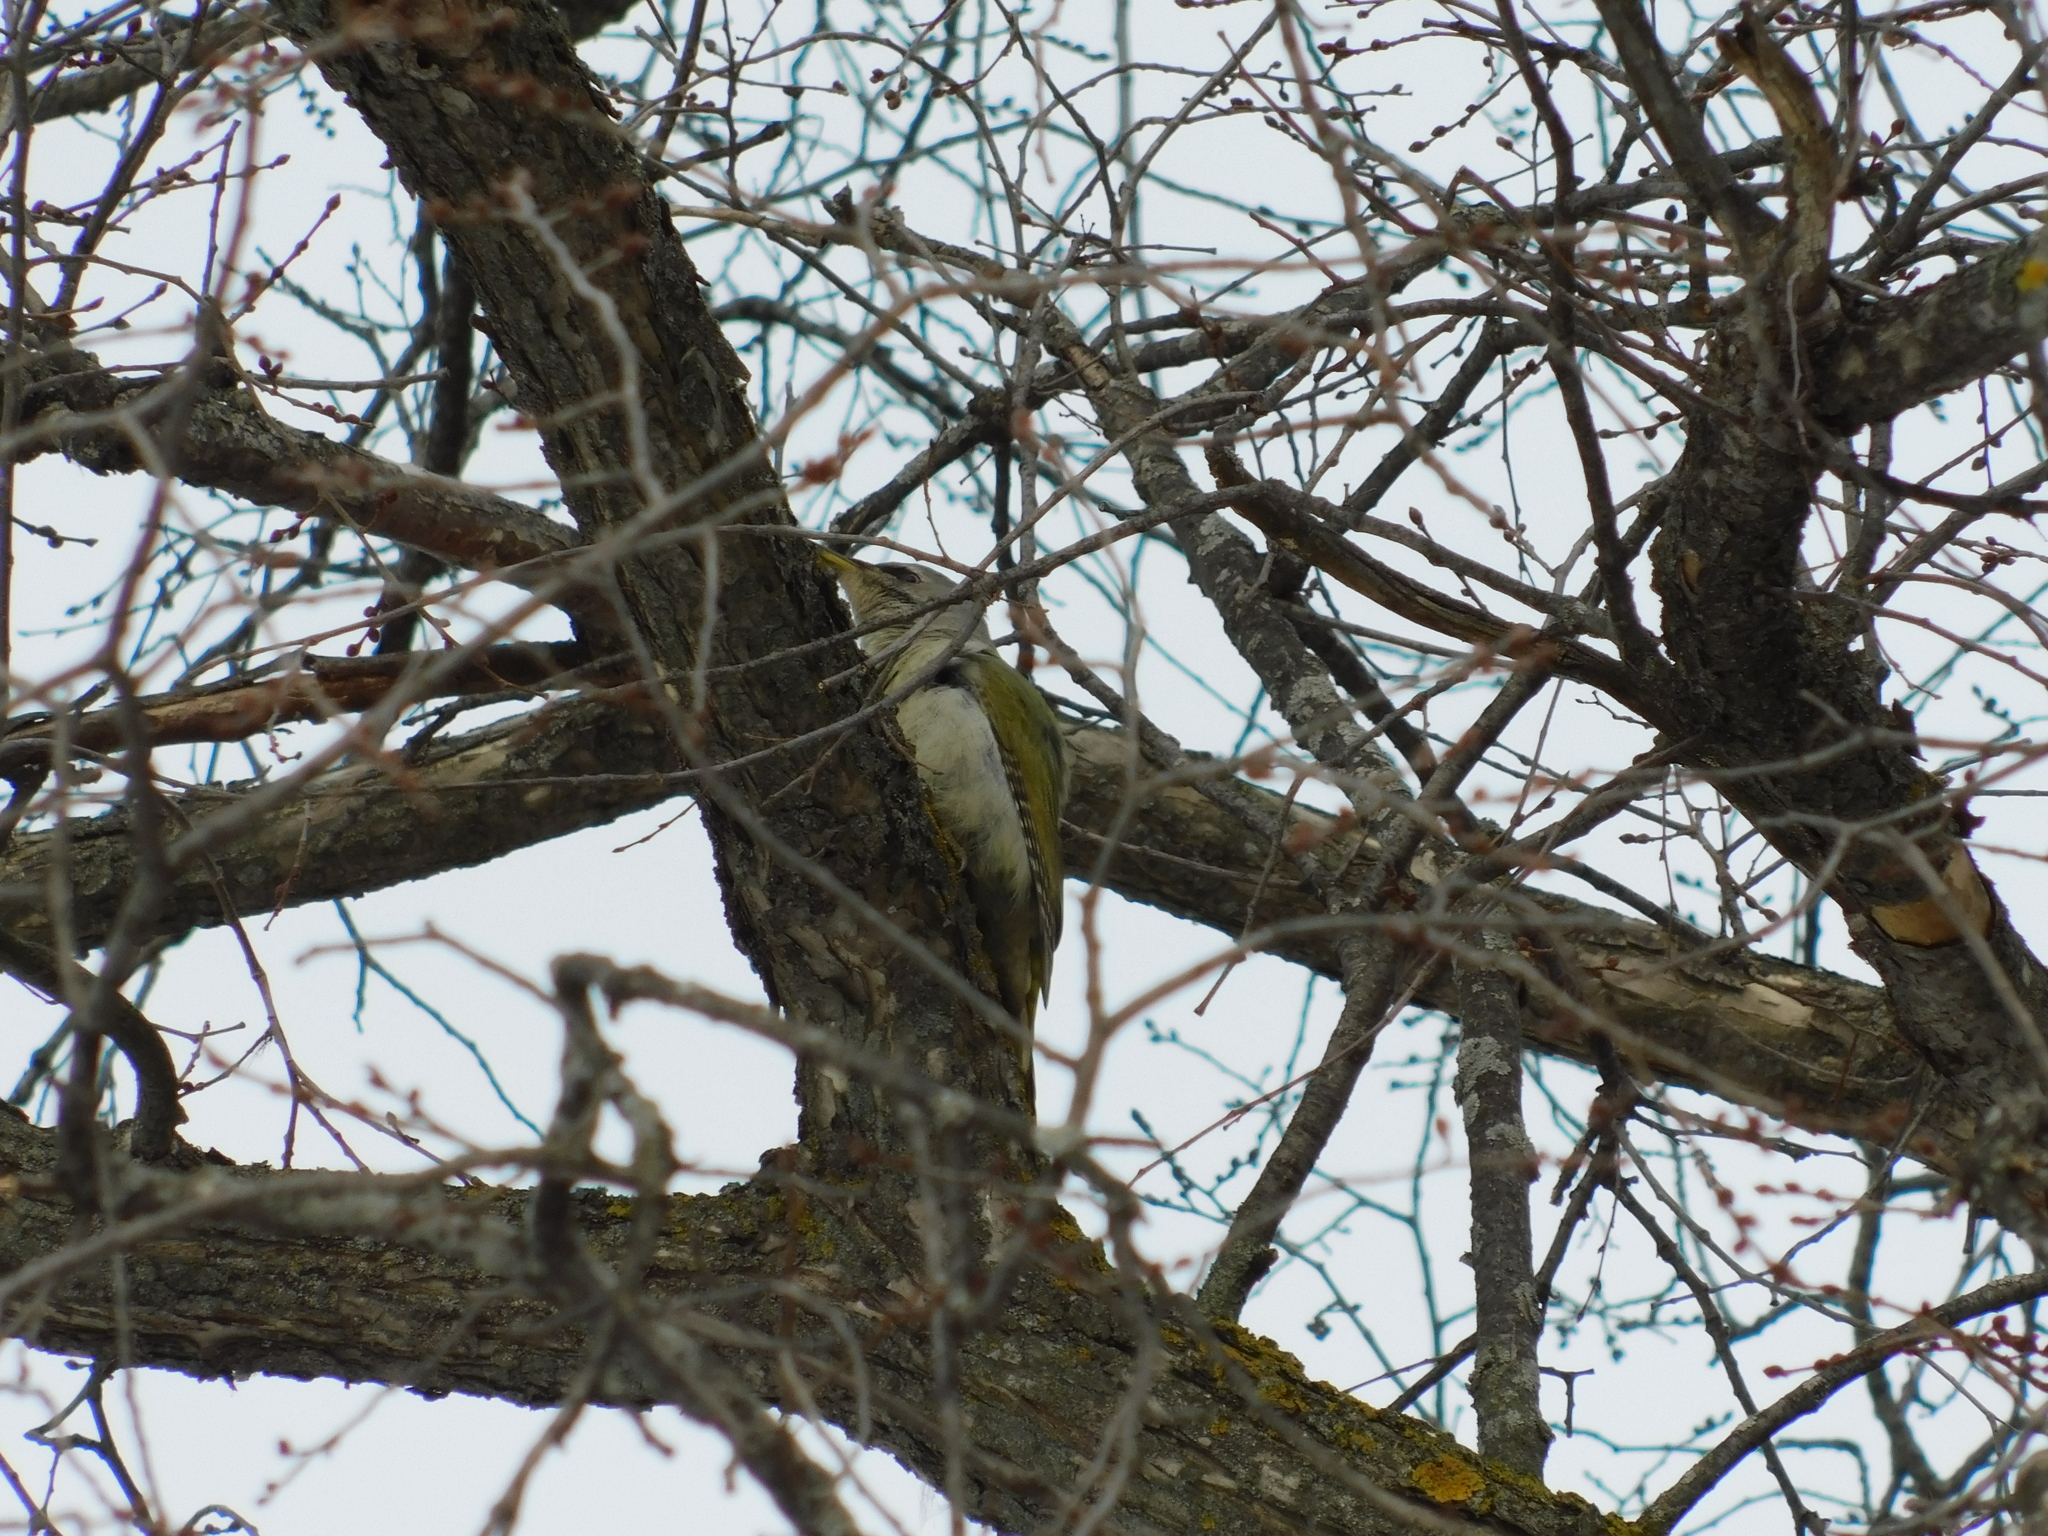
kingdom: Animalia
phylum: Chordata
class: Aves
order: Piciformes
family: Picidae
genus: Picus
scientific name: Picus canus
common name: Grey-headed woodpecker
